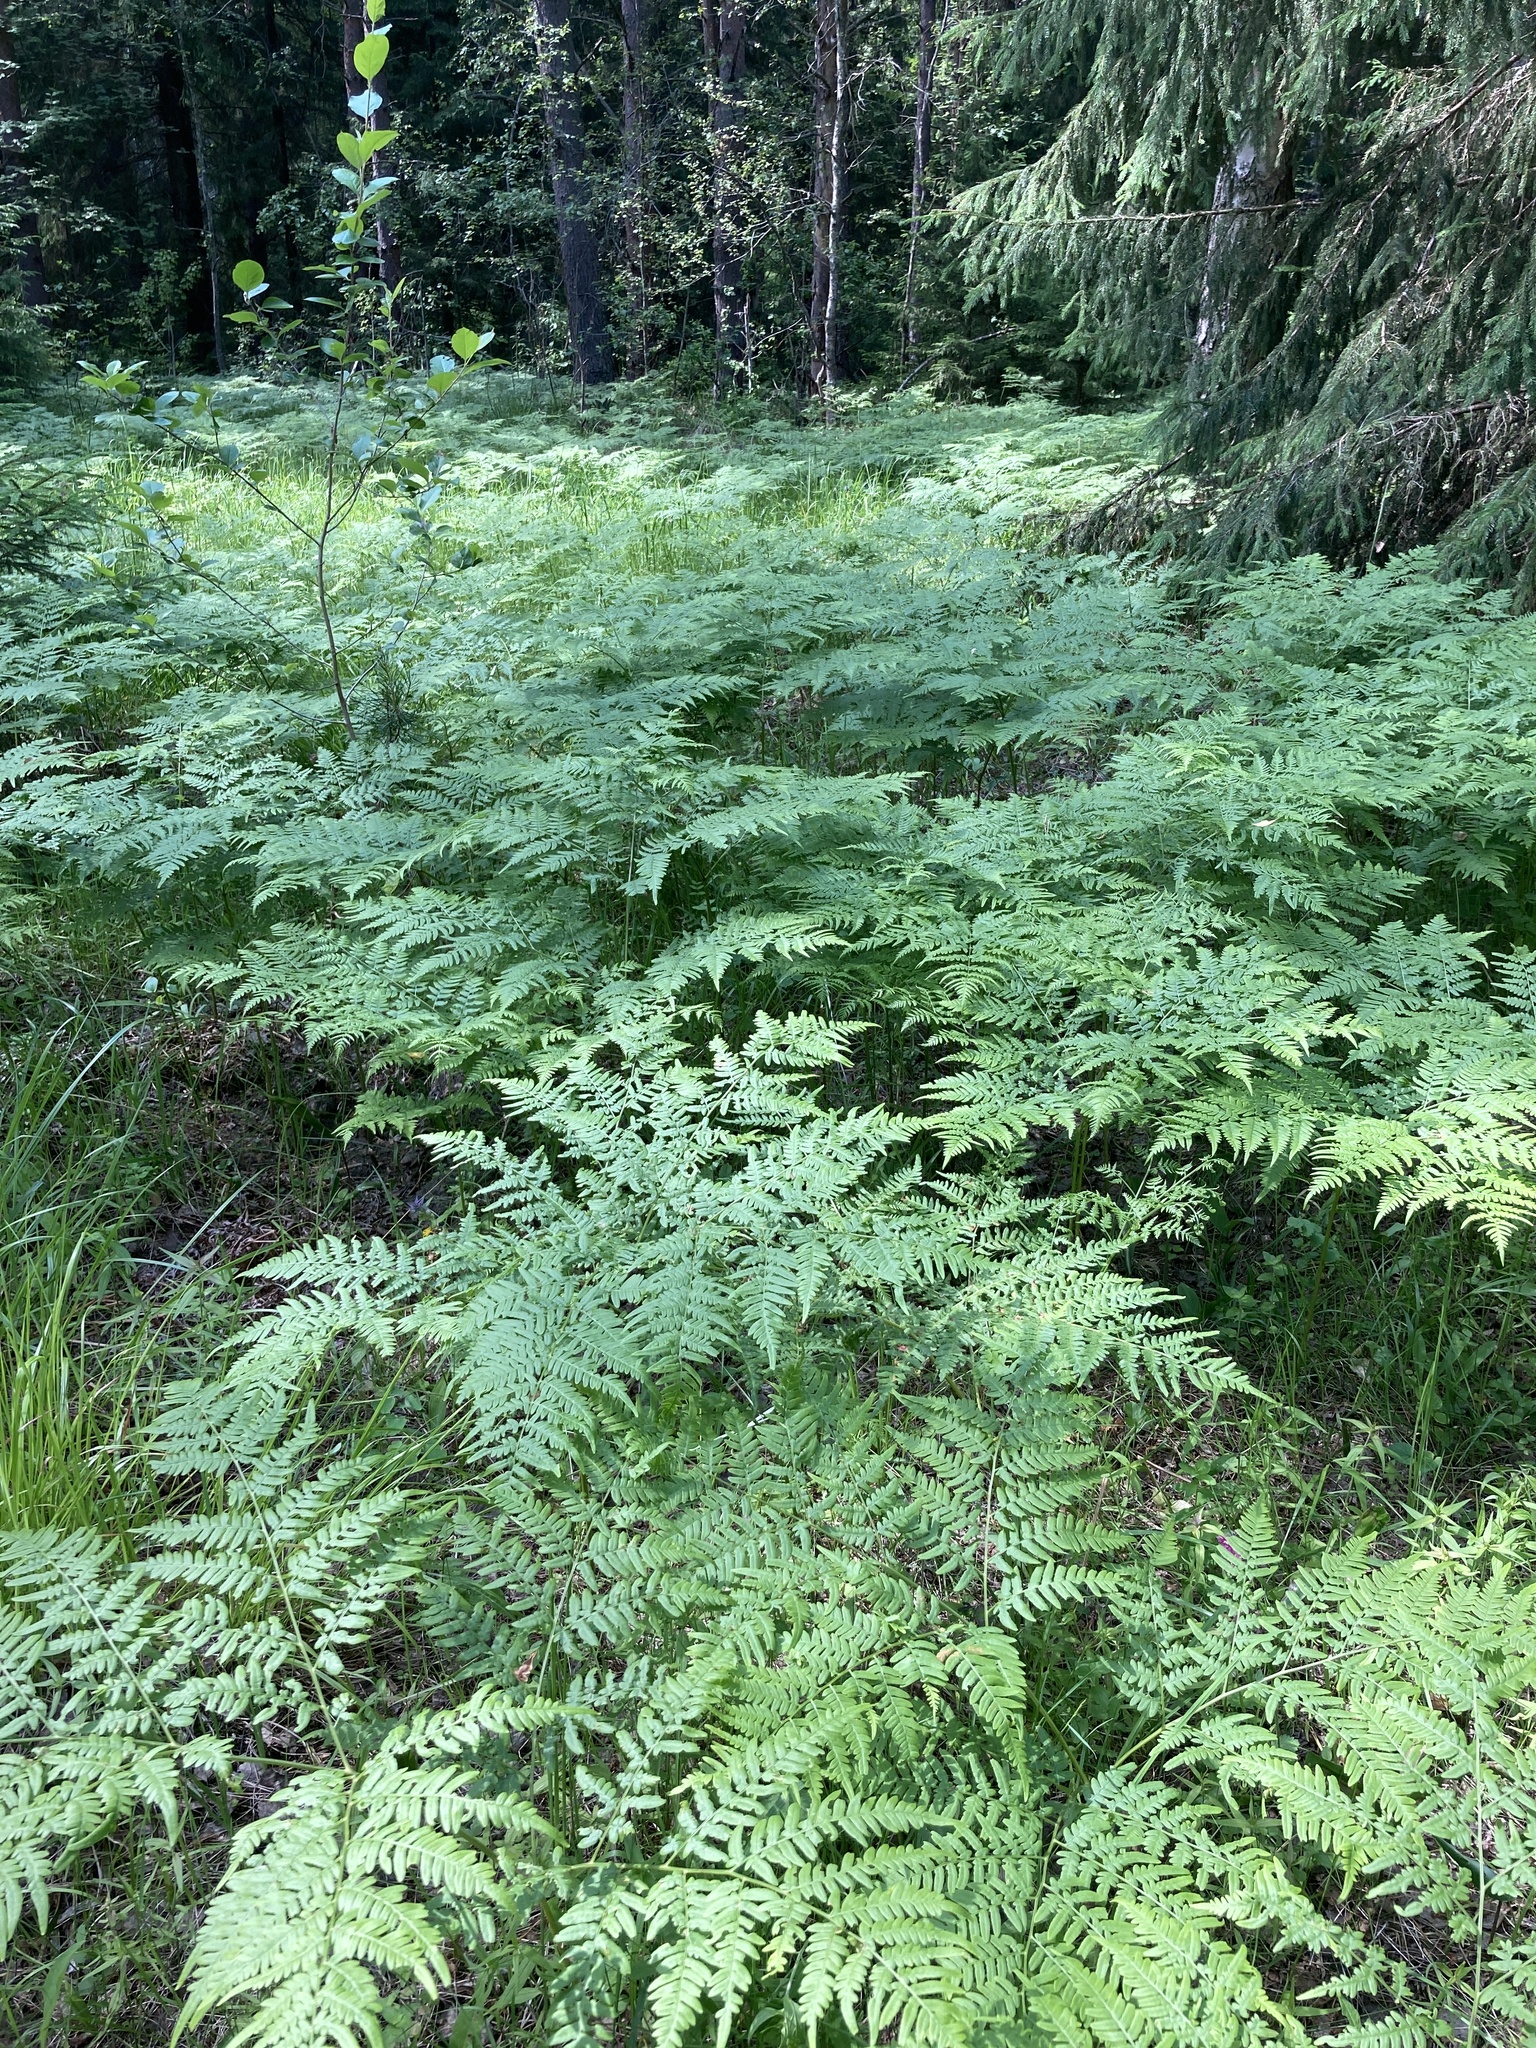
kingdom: Plantae
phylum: Tracheophyta
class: Polypodiopsida
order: Polypodiales
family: Dennstaedtiaceae
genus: Pteridium
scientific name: Pteridium aquilinum
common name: Bracken
